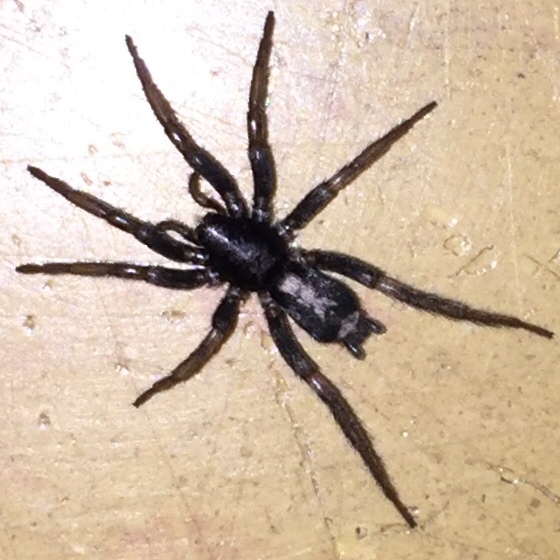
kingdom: Animalia
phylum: Arthropoda
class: Arachnida
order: Araneae
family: Gnaphosidae
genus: Herpyllus
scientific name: Herpyllus ecclesiasticus
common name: Eastern parson spider
